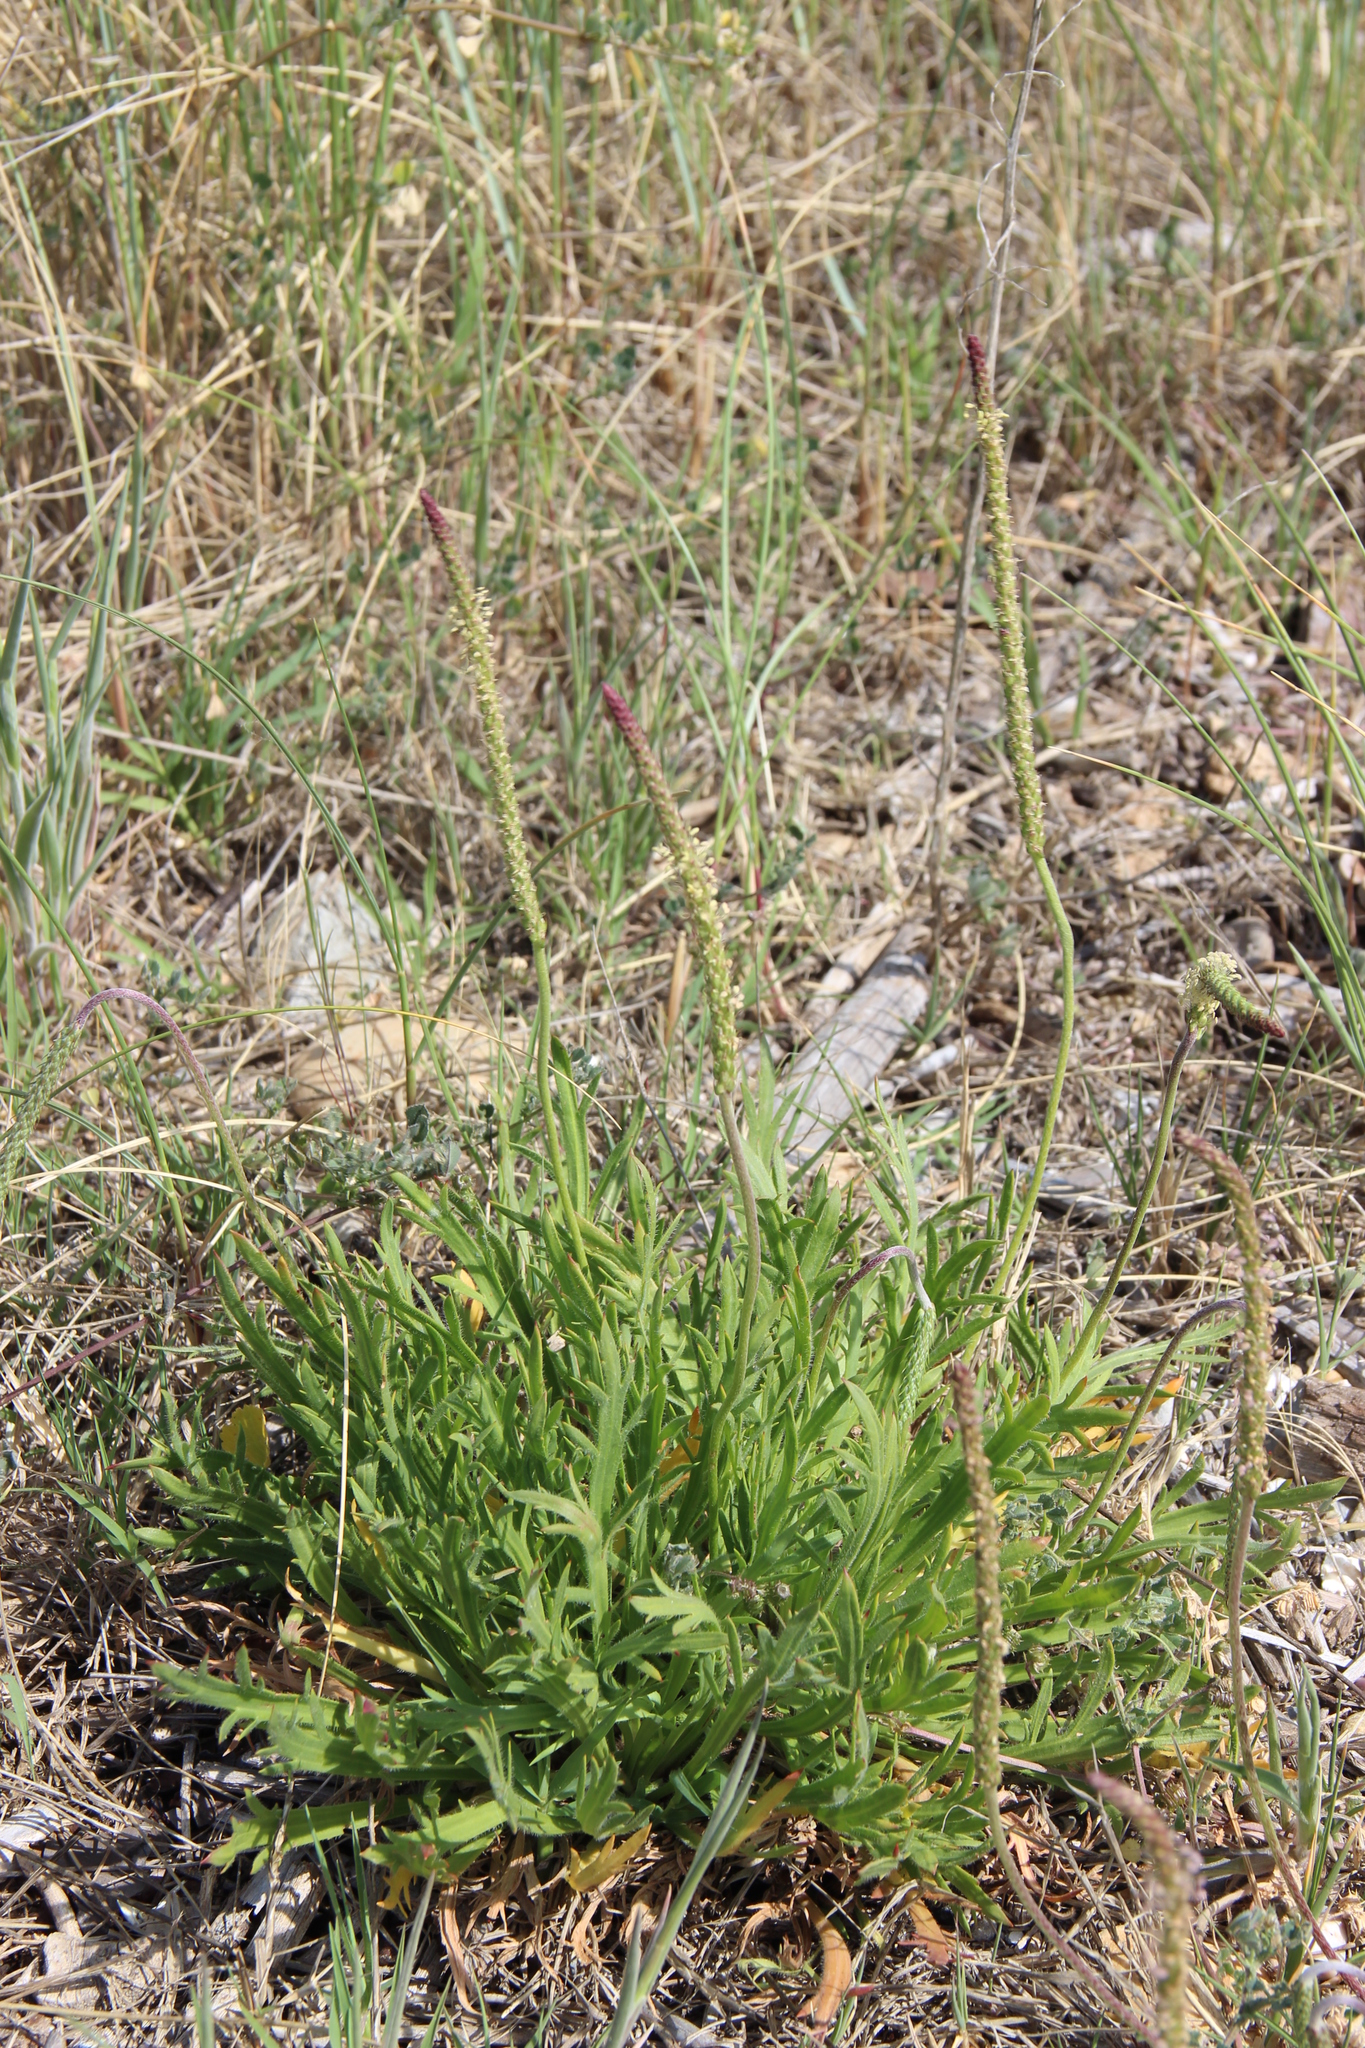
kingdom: Plantae
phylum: Tracheophyta
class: Magnoliopsida
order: Lamiales
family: Plantaginaceae
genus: Plantago
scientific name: Plantago coronopus
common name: Buck's-horn plantain
